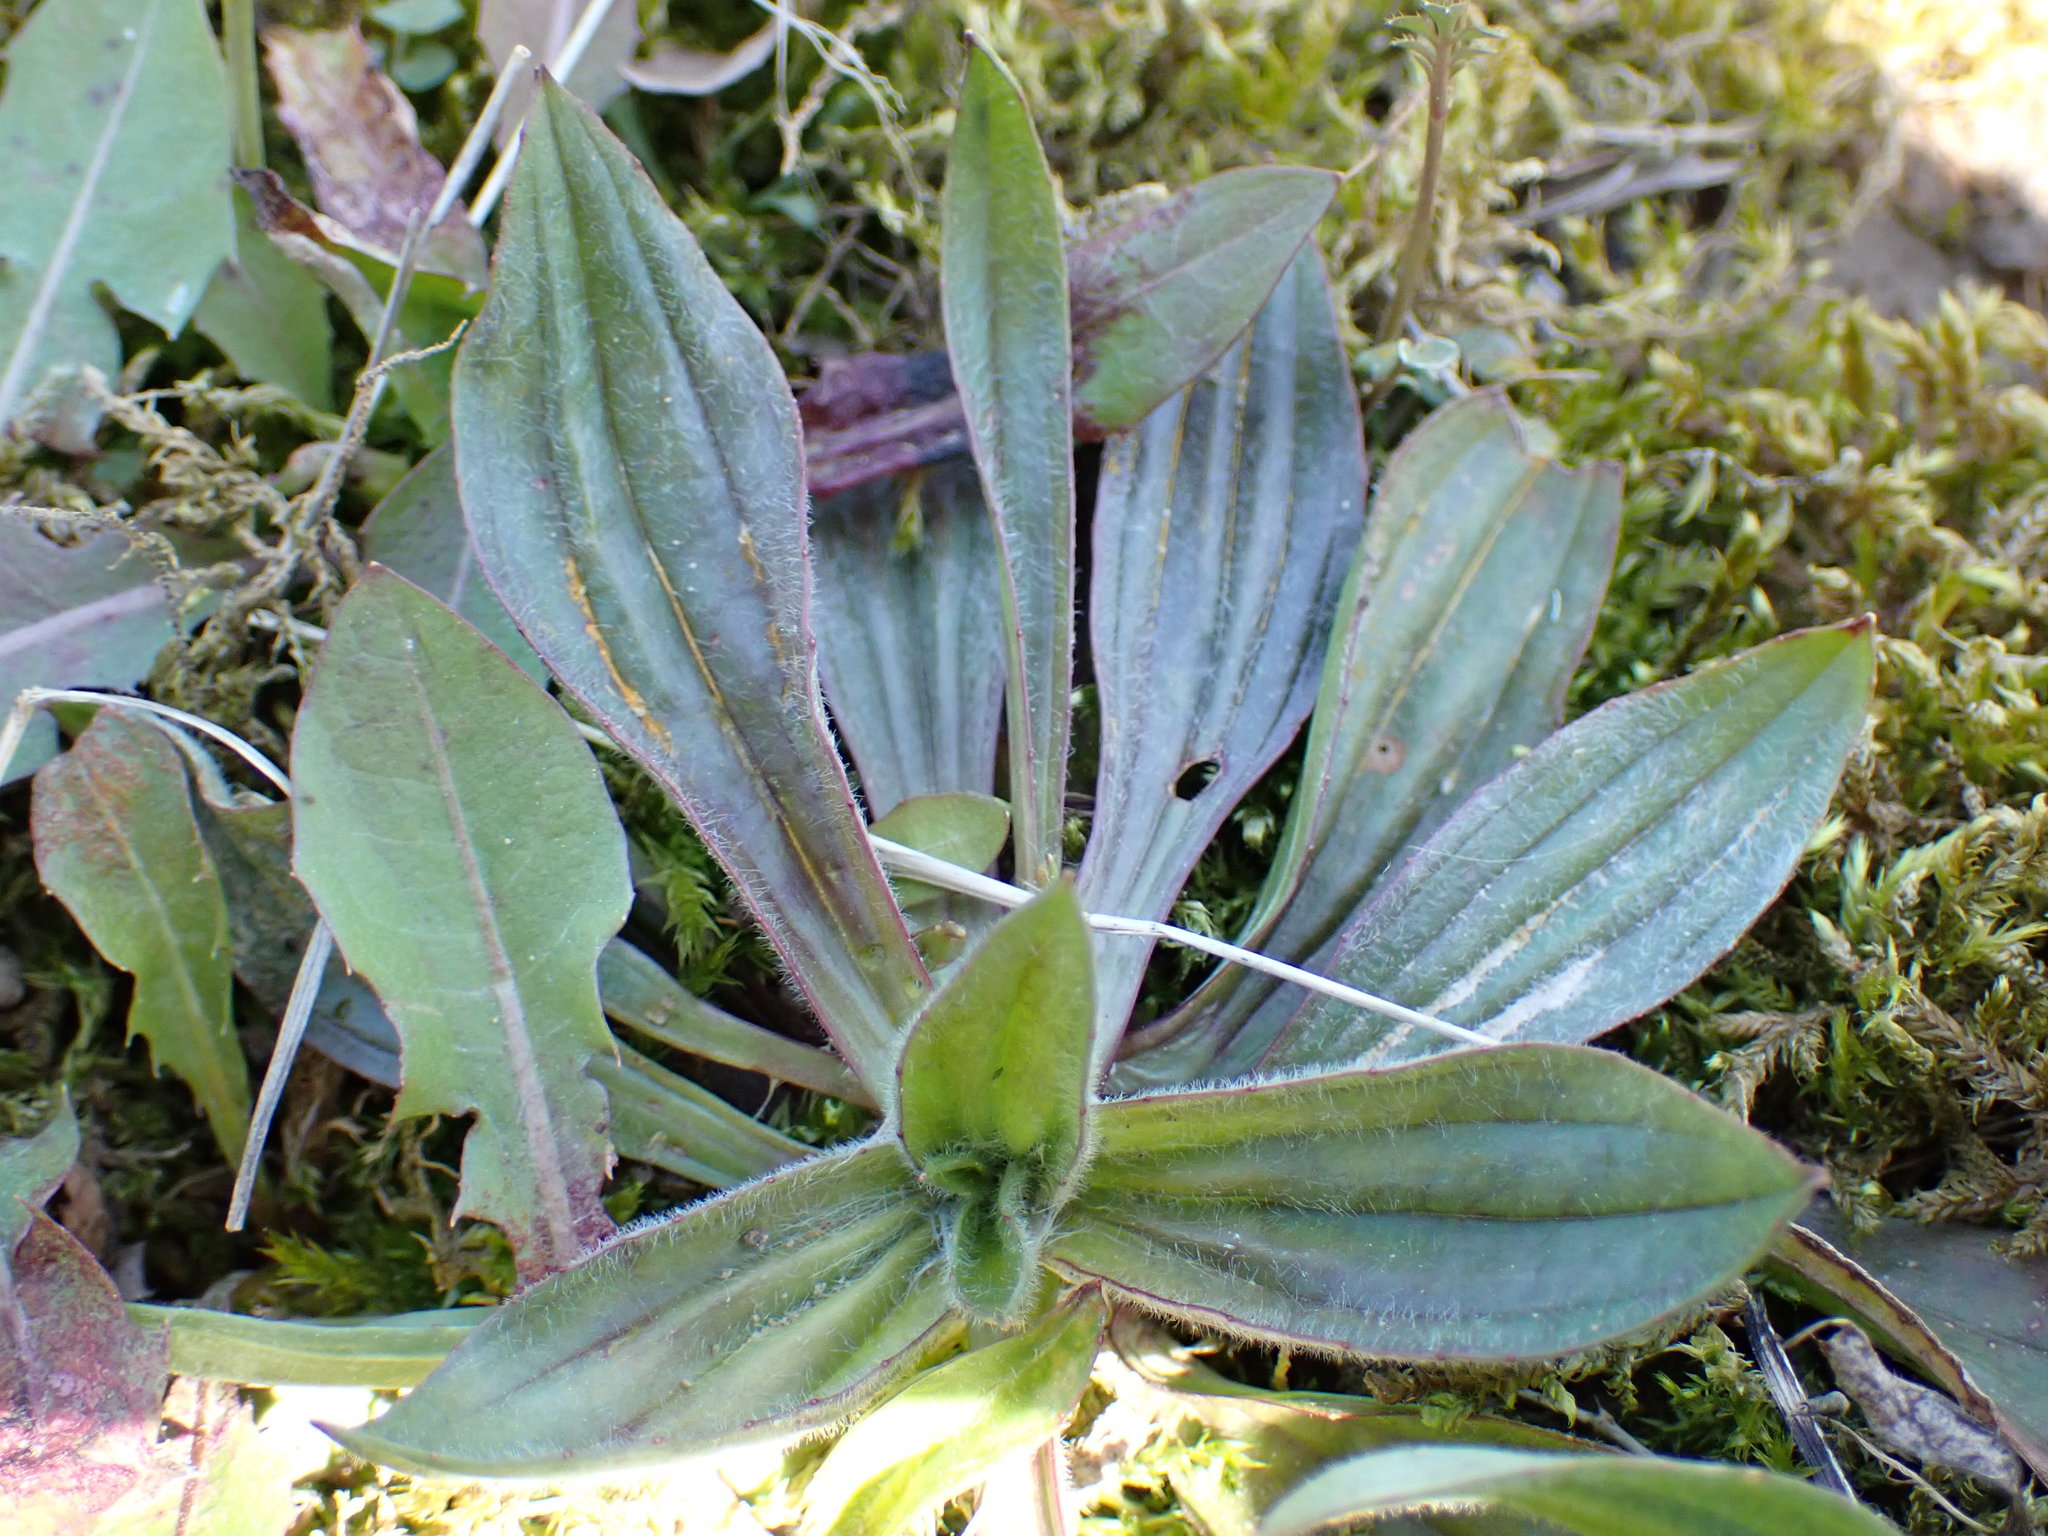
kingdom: Plantae
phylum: Tracheophyta
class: Magnoliopsida
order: Lamiales
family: Plantaginaceae
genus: Plantago
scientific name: Plantago lanceolata
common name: Ribwort plantain
